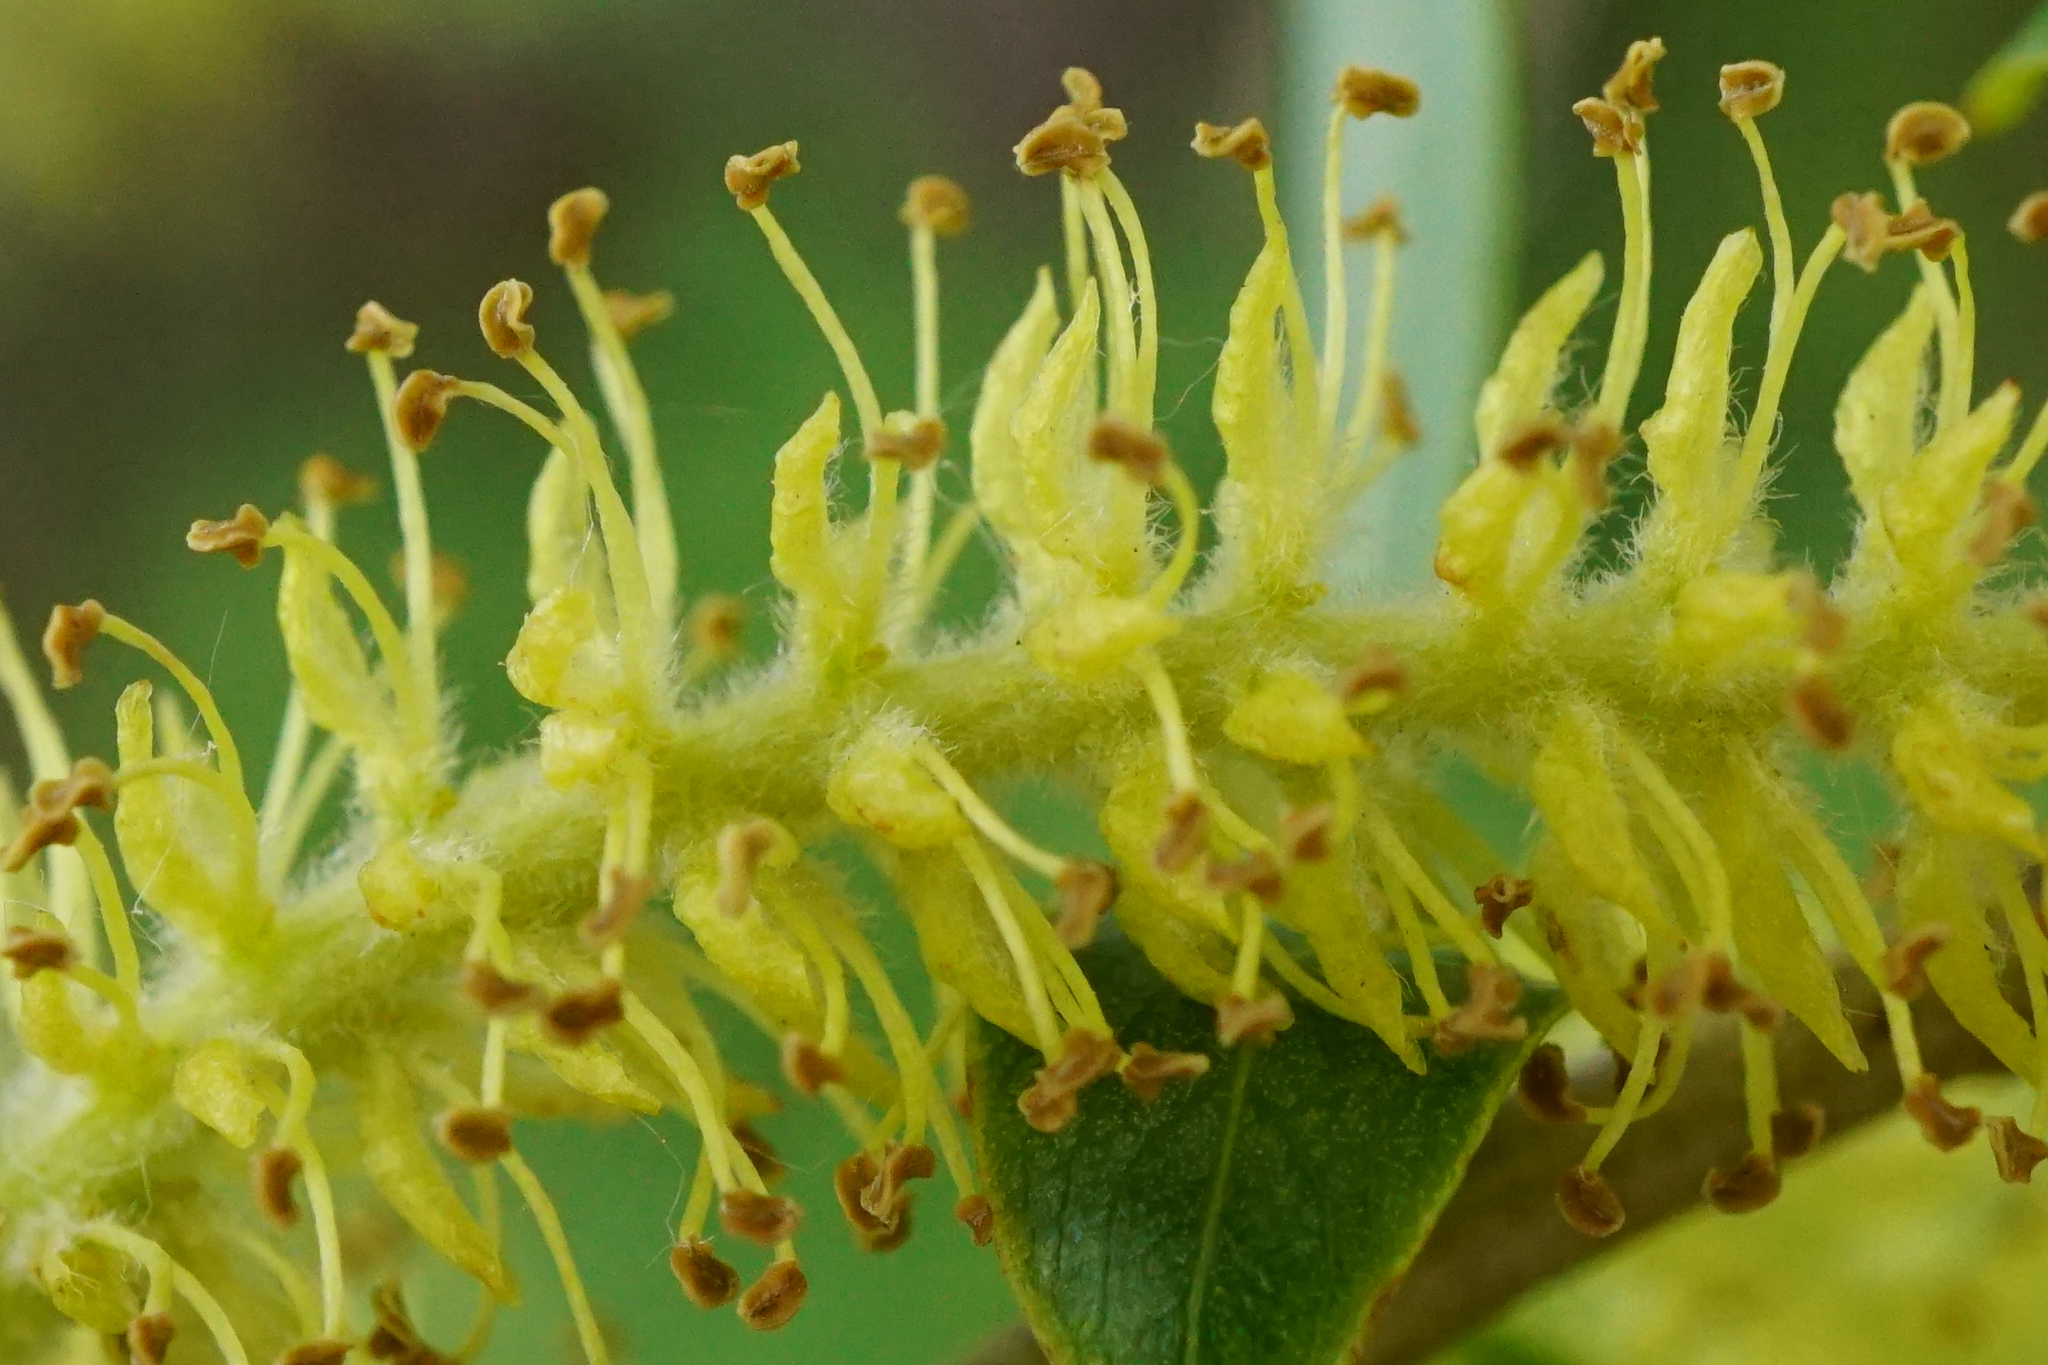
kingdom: Plantae
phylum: Tracheophyta
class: Magnoliopsida
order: Malpighiales
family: Salicaceae
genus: Salix
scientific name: Salix fragilis
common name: Crack willow
